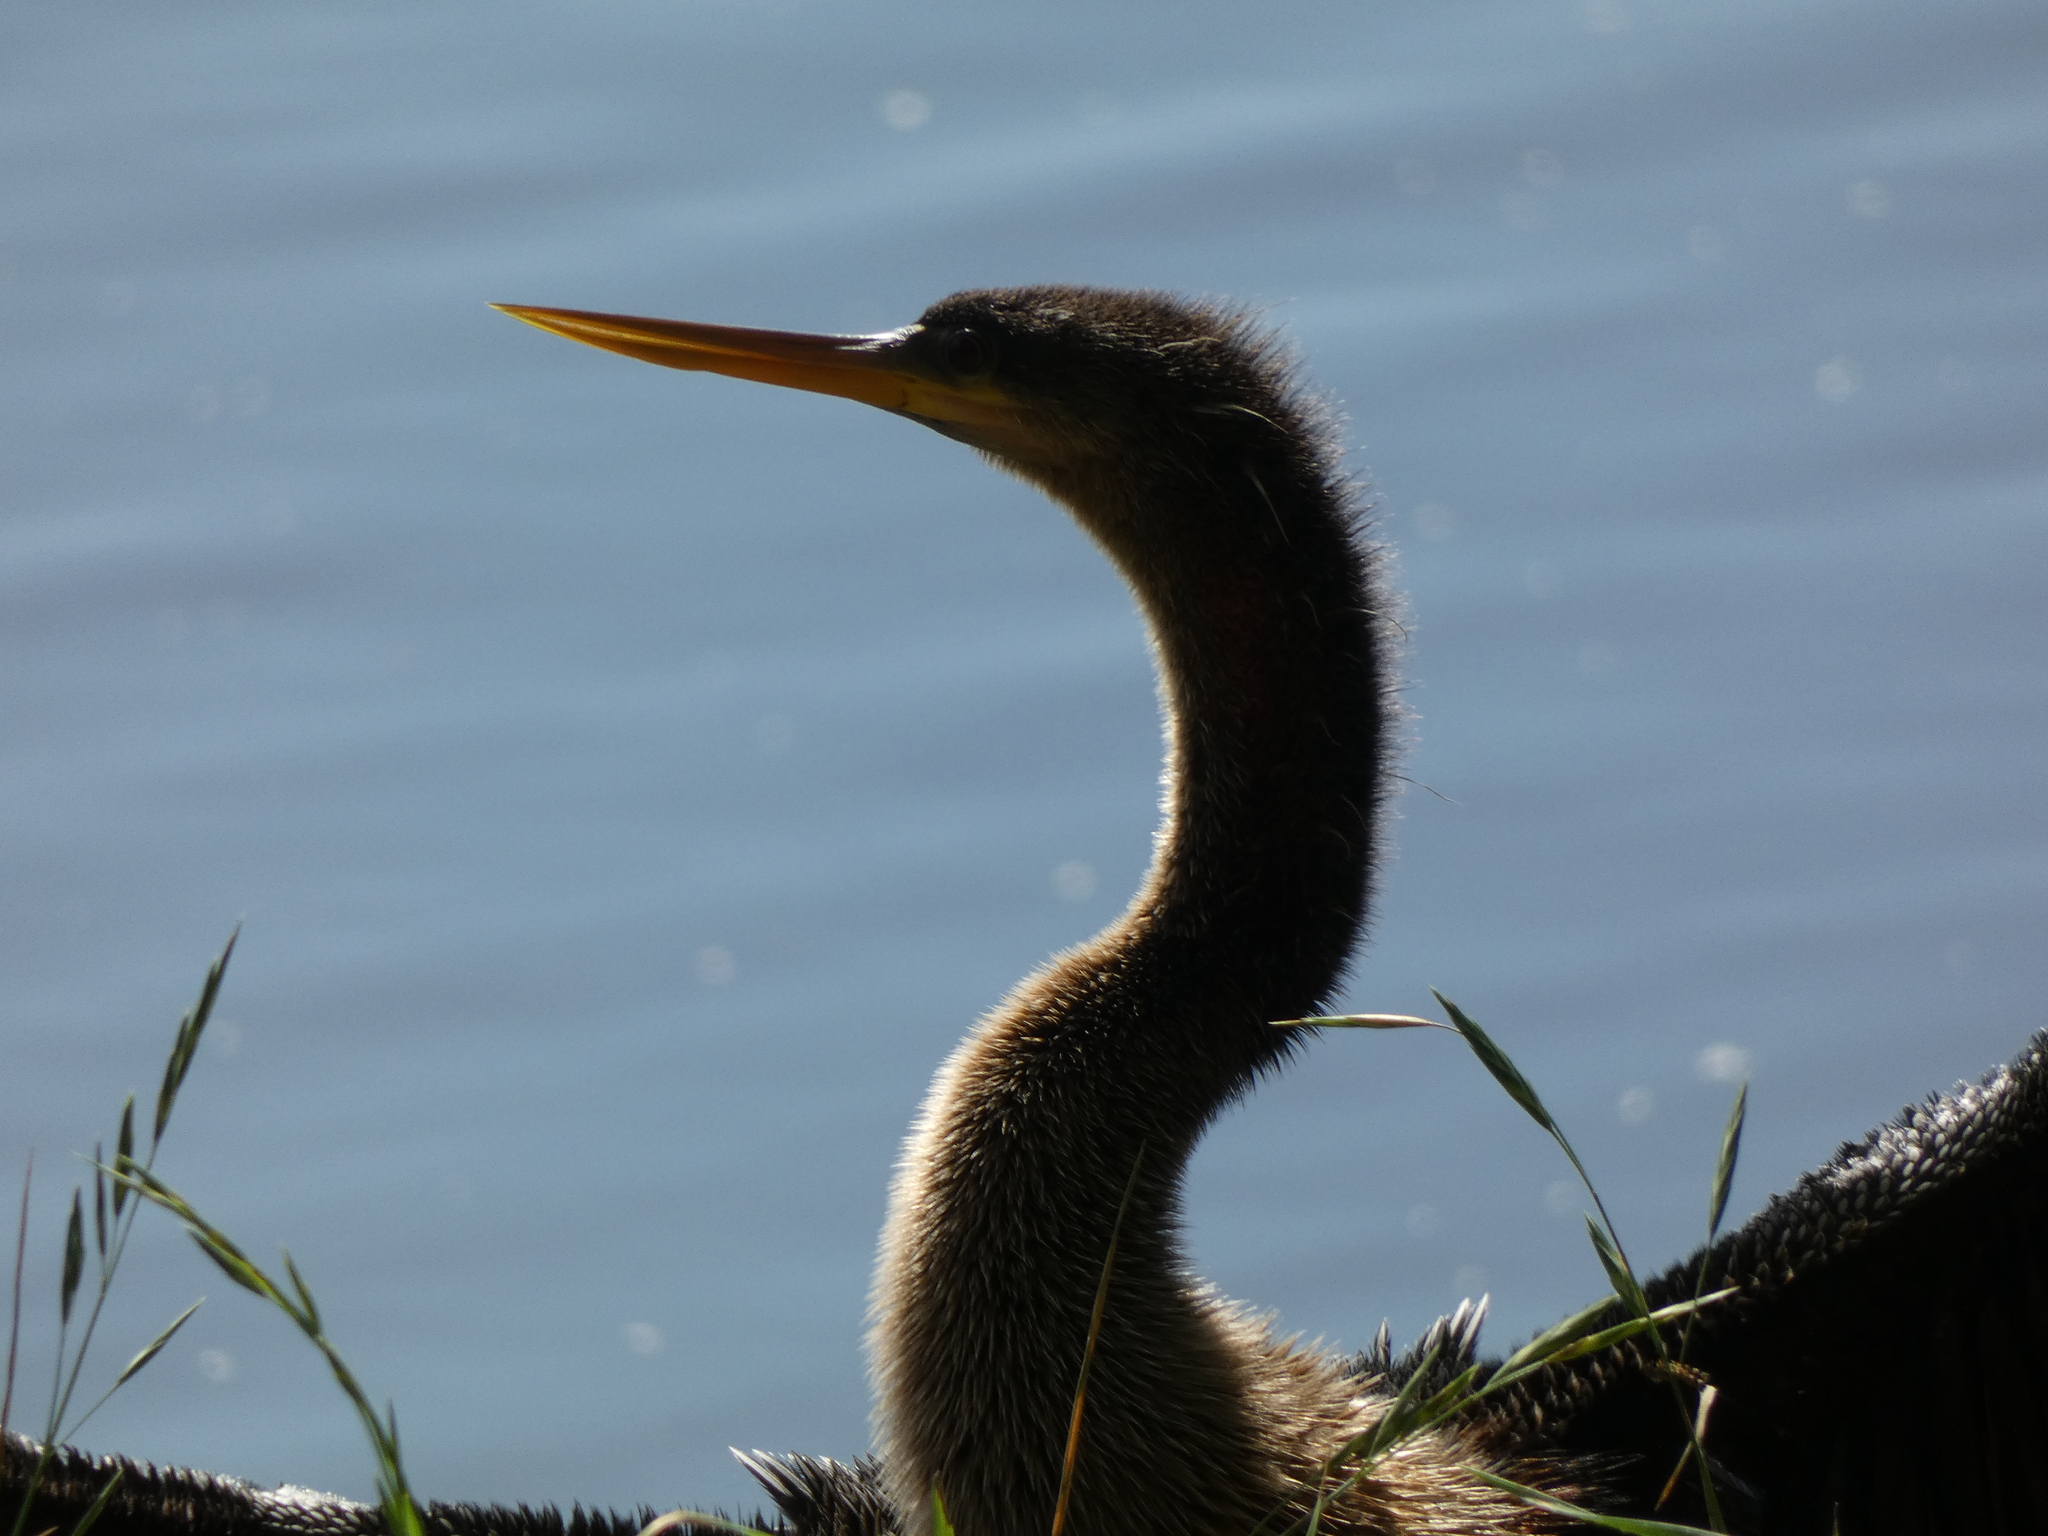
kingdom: Animalia
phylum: Chordata
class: Aves
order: Suliformes
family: Anhingidae
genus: Anhinga
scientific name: Anhinga anhinga
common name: Anhinga
